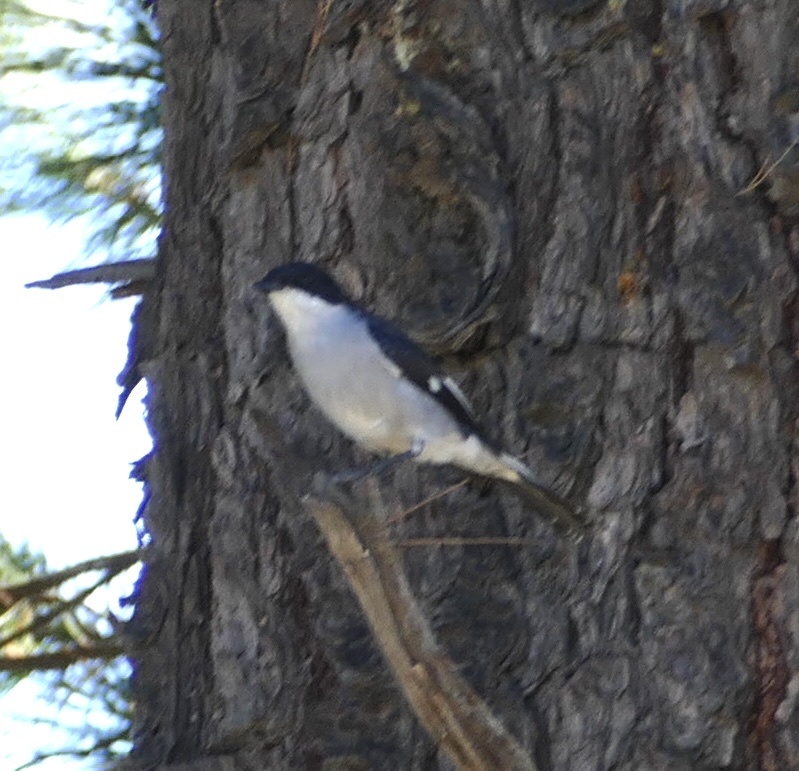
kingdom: Animalia
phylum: Chordata
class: Aves
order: Passeriformes
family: Muscicapidae
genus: Sigelus
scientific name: Sigelus silens
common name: Fiscal flycatcher
